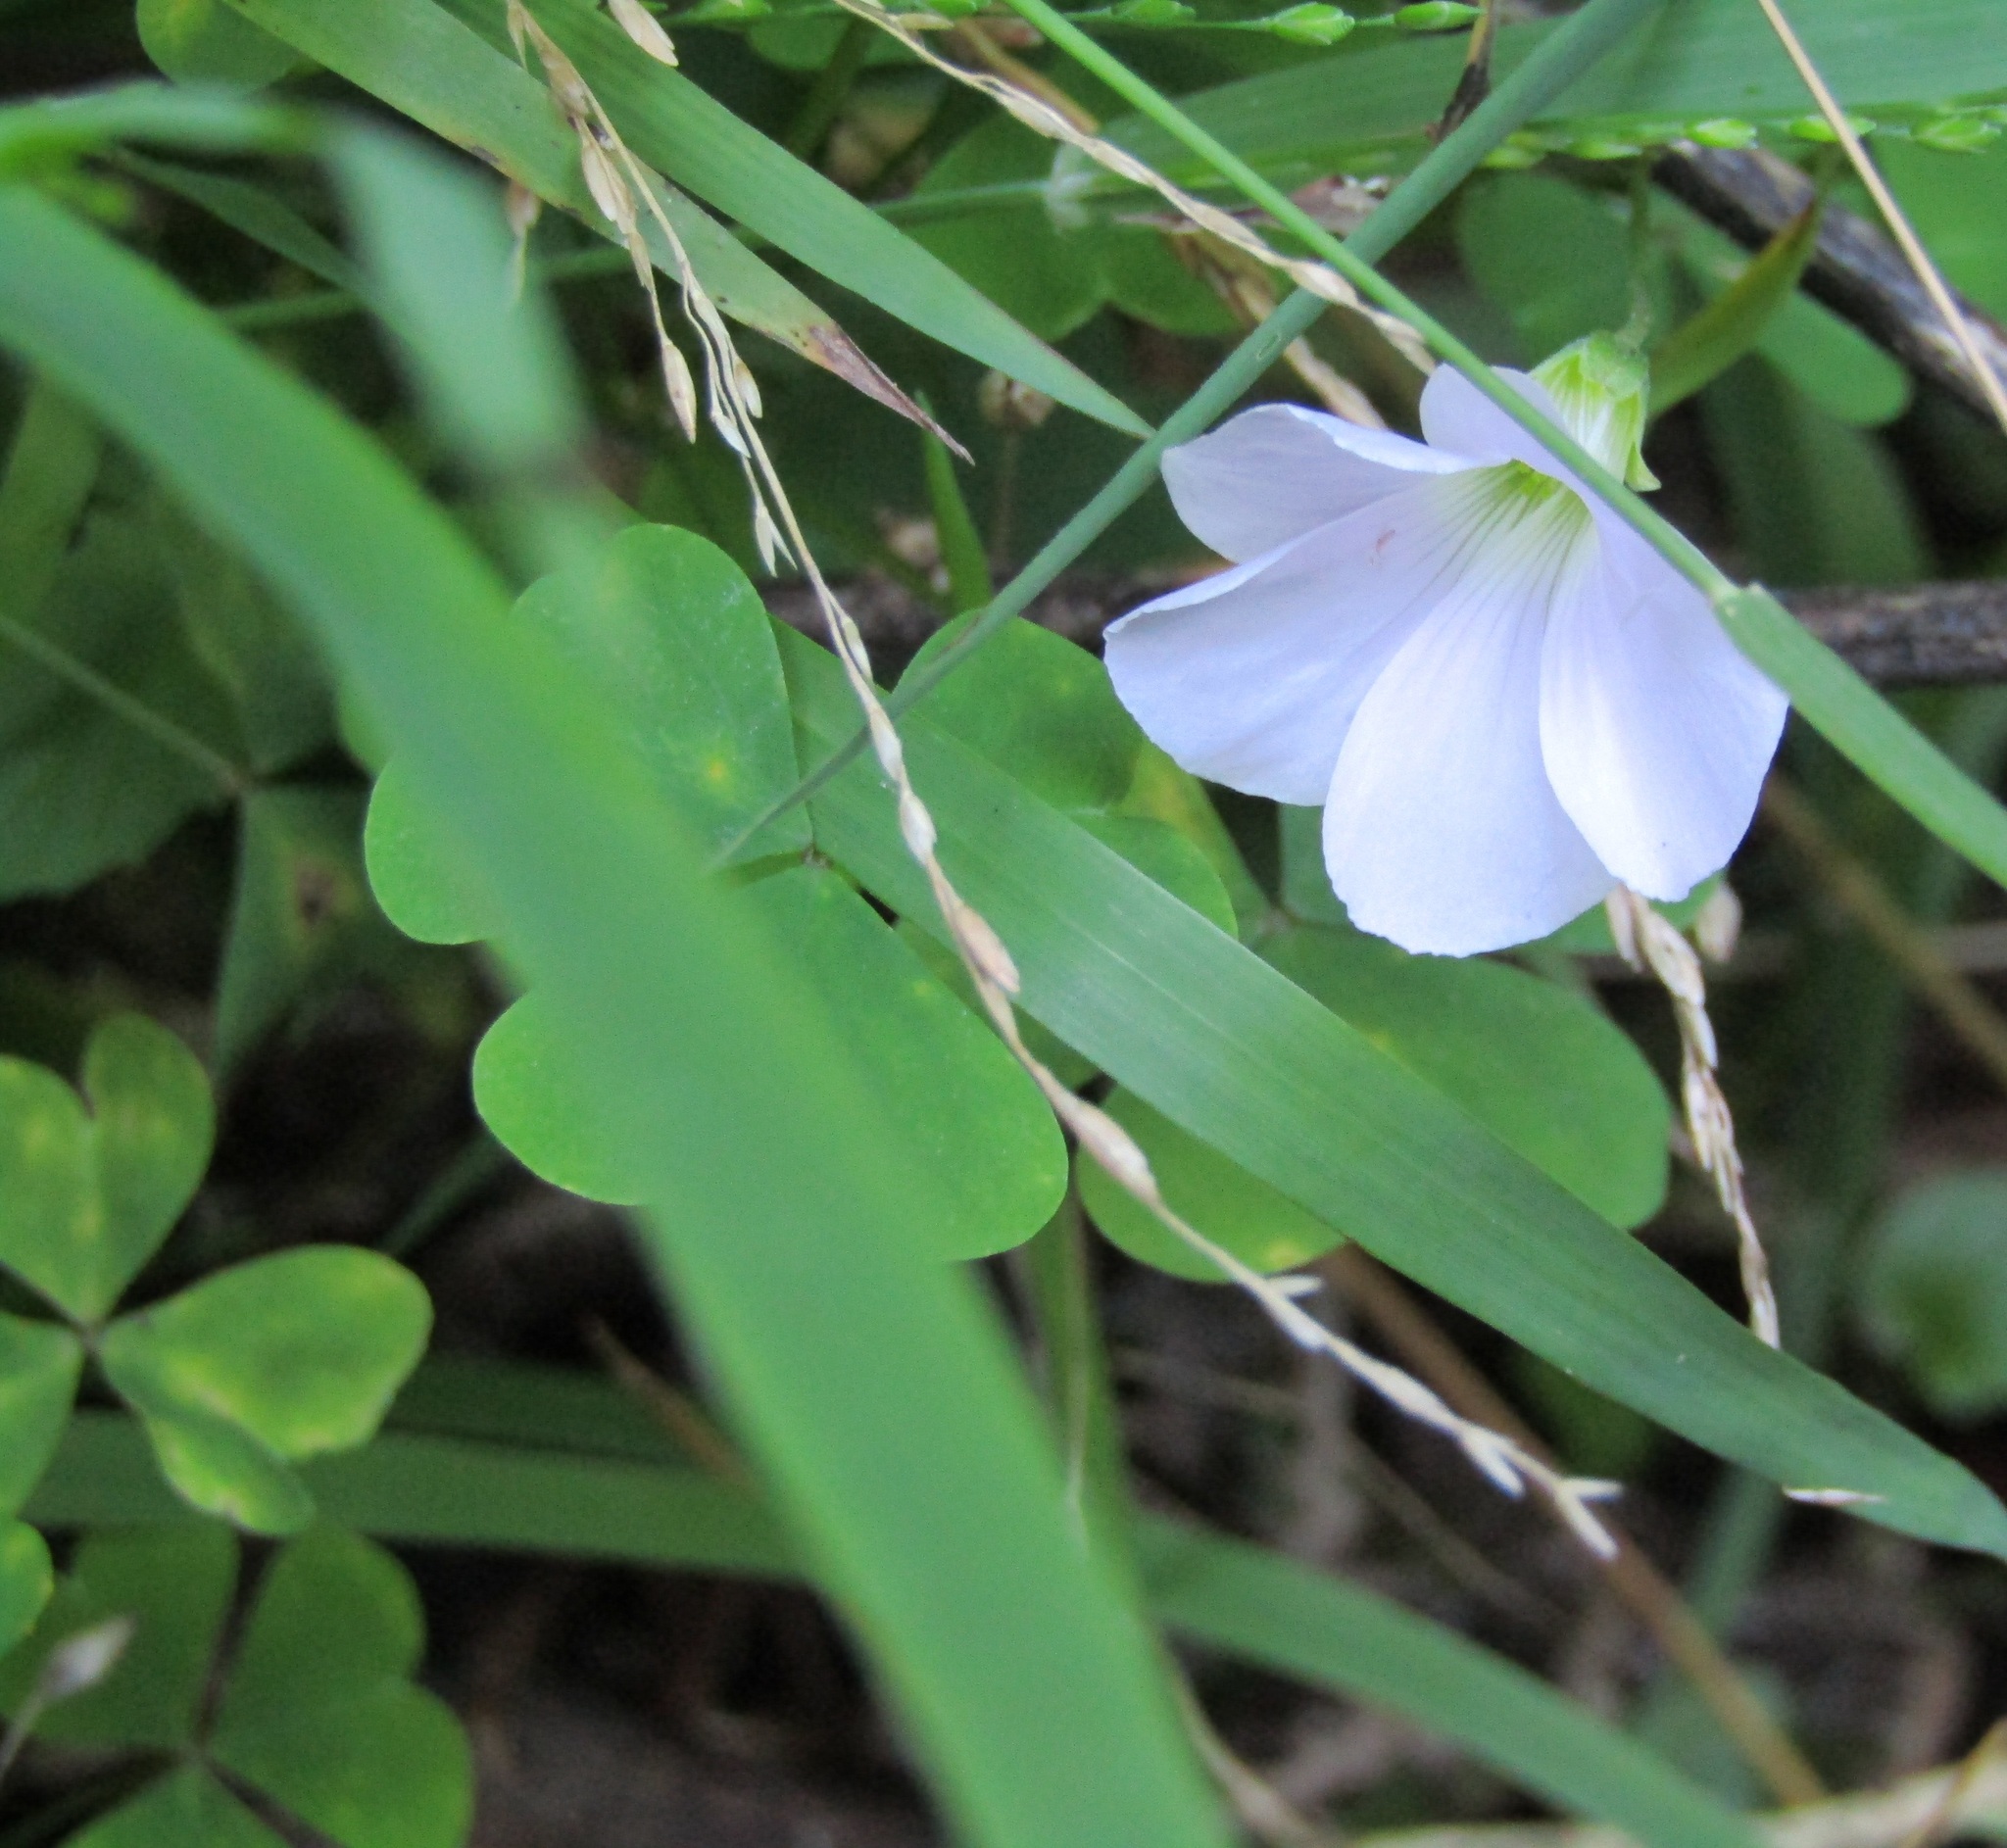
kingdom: Plantae
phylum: Tracheophyta
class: Magnoliopsida
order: Oxalidales
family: Oxalidaceae
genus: Oxalis
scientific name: Oxalis incarnata
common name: Pale pink-sorrel
